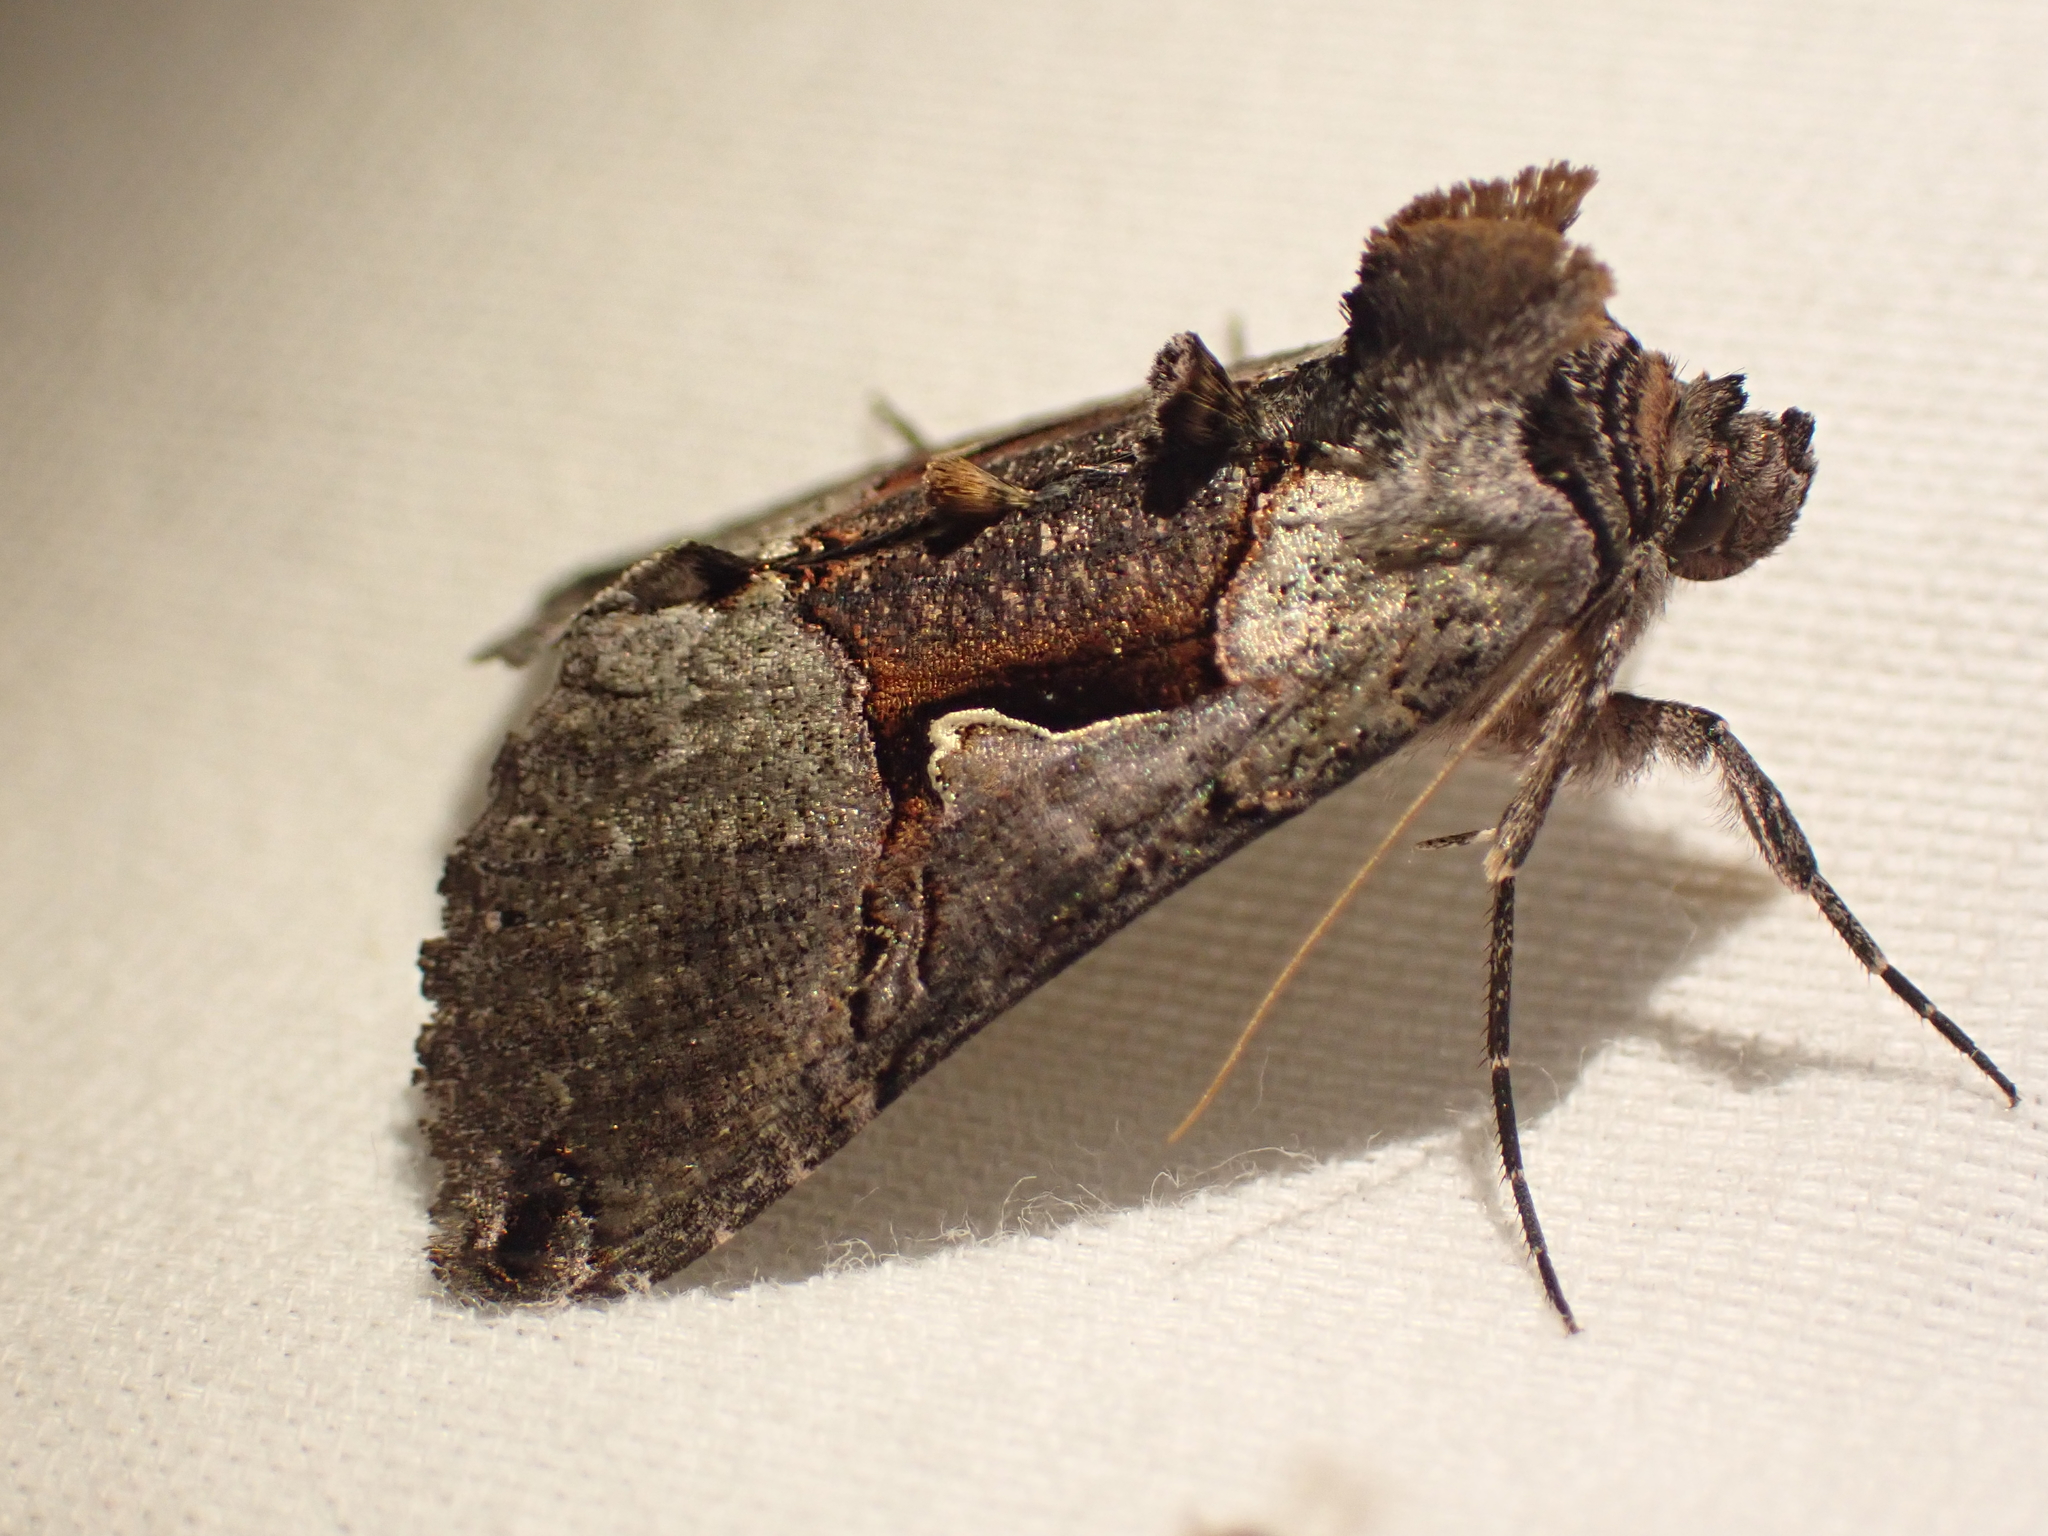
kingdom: Animalia
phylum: Arthropoda
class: Insecta
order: Lepidoptera
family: Noctuidae
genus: Autographa
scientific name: Autographa ampla
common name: Large looper moth
